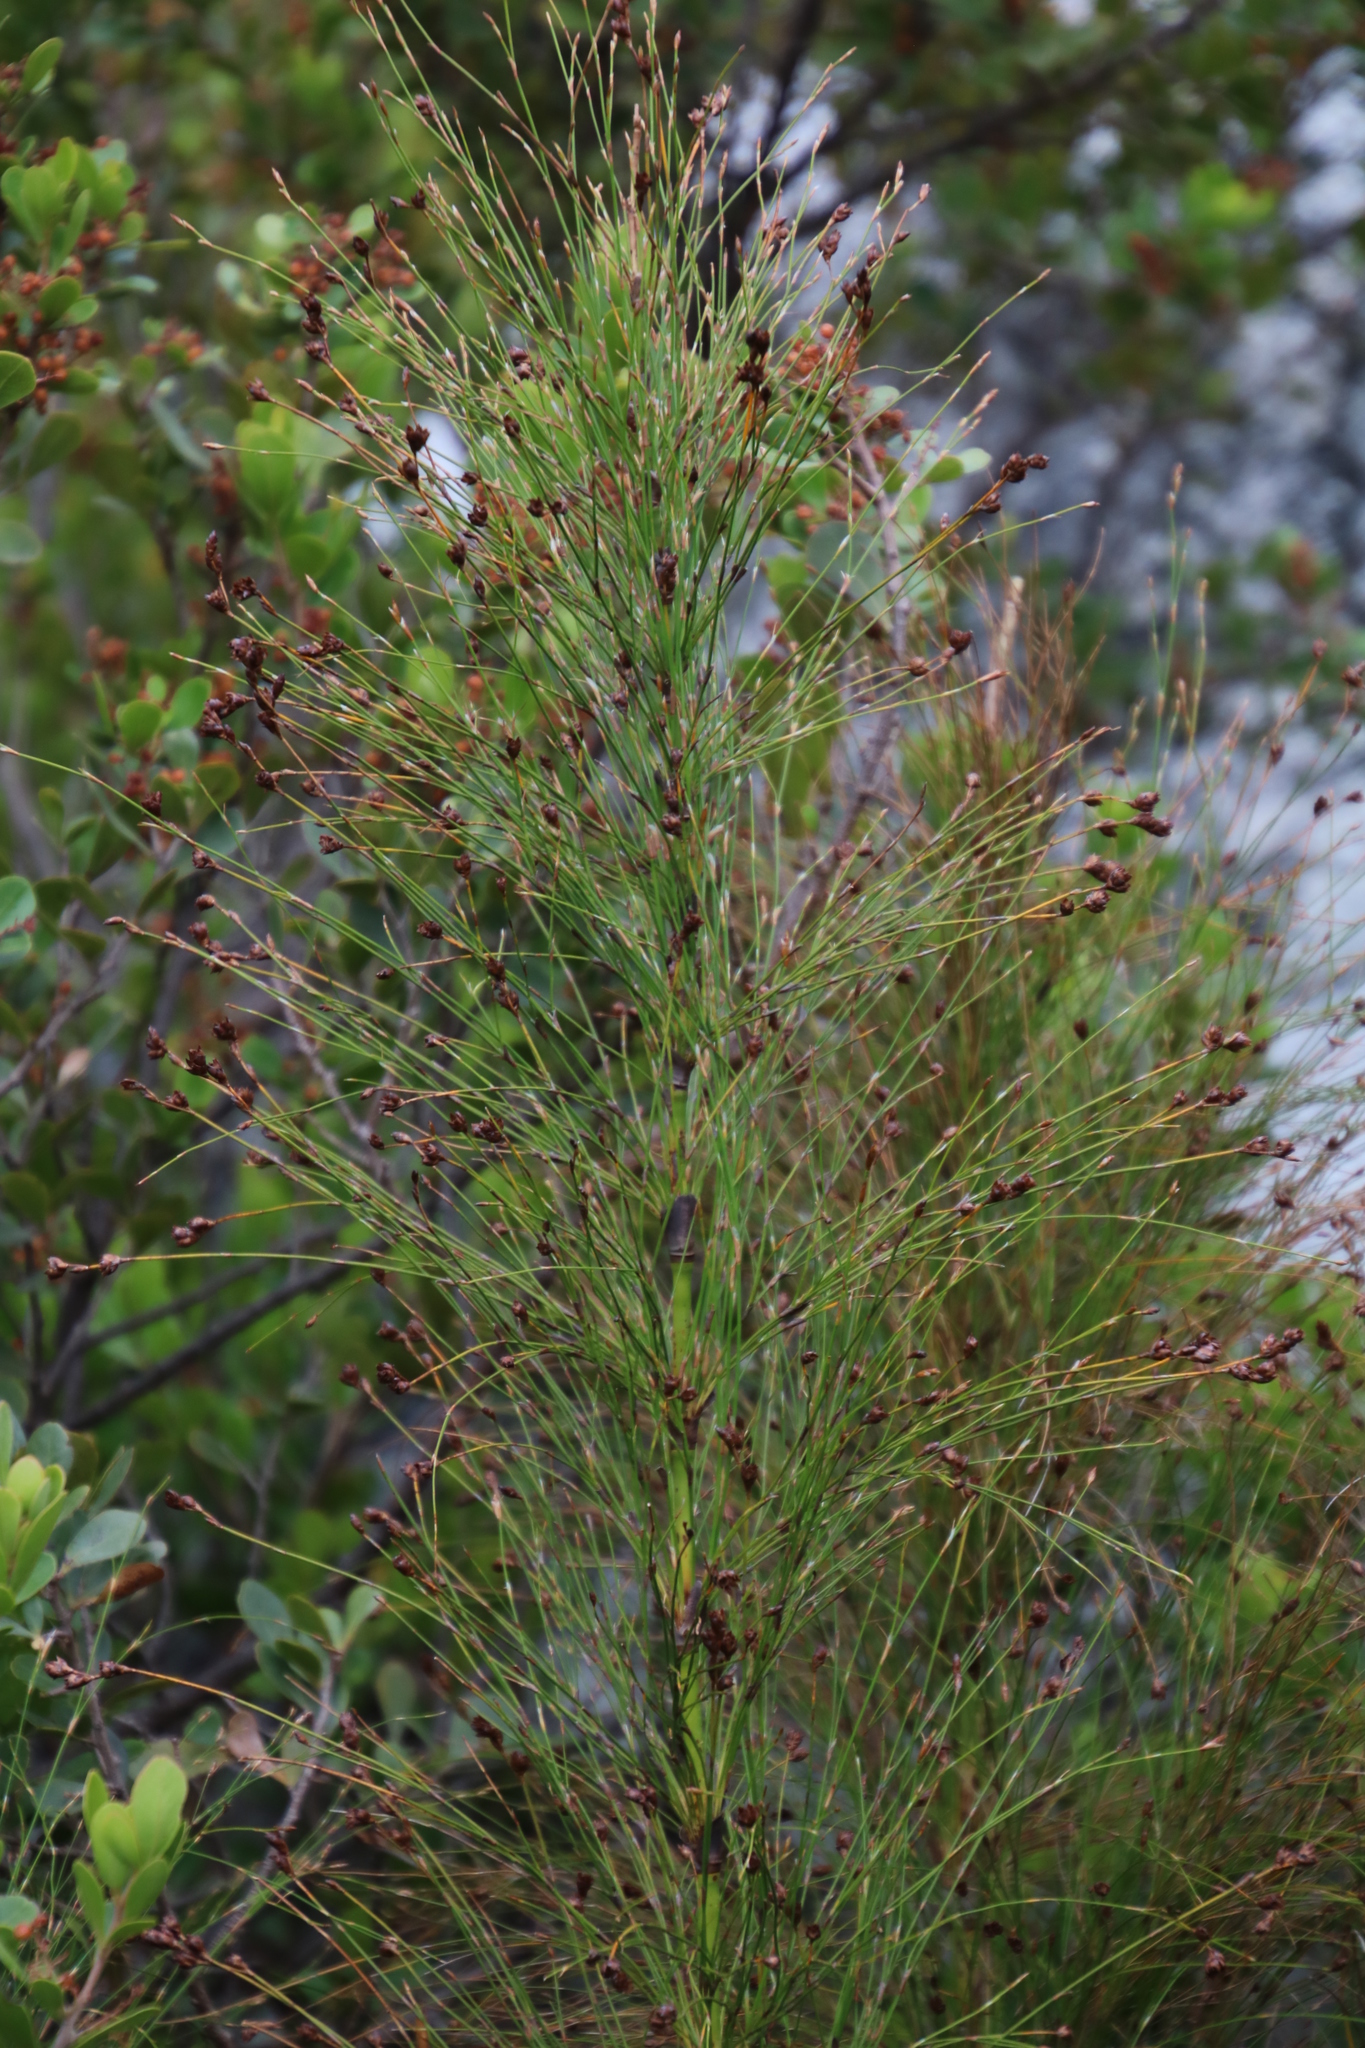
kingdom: Plantae
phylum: Tracheophyta
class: Liliopsida
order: Poales
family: Restionaceae
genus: Restio
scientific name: Restio subverticillatus
